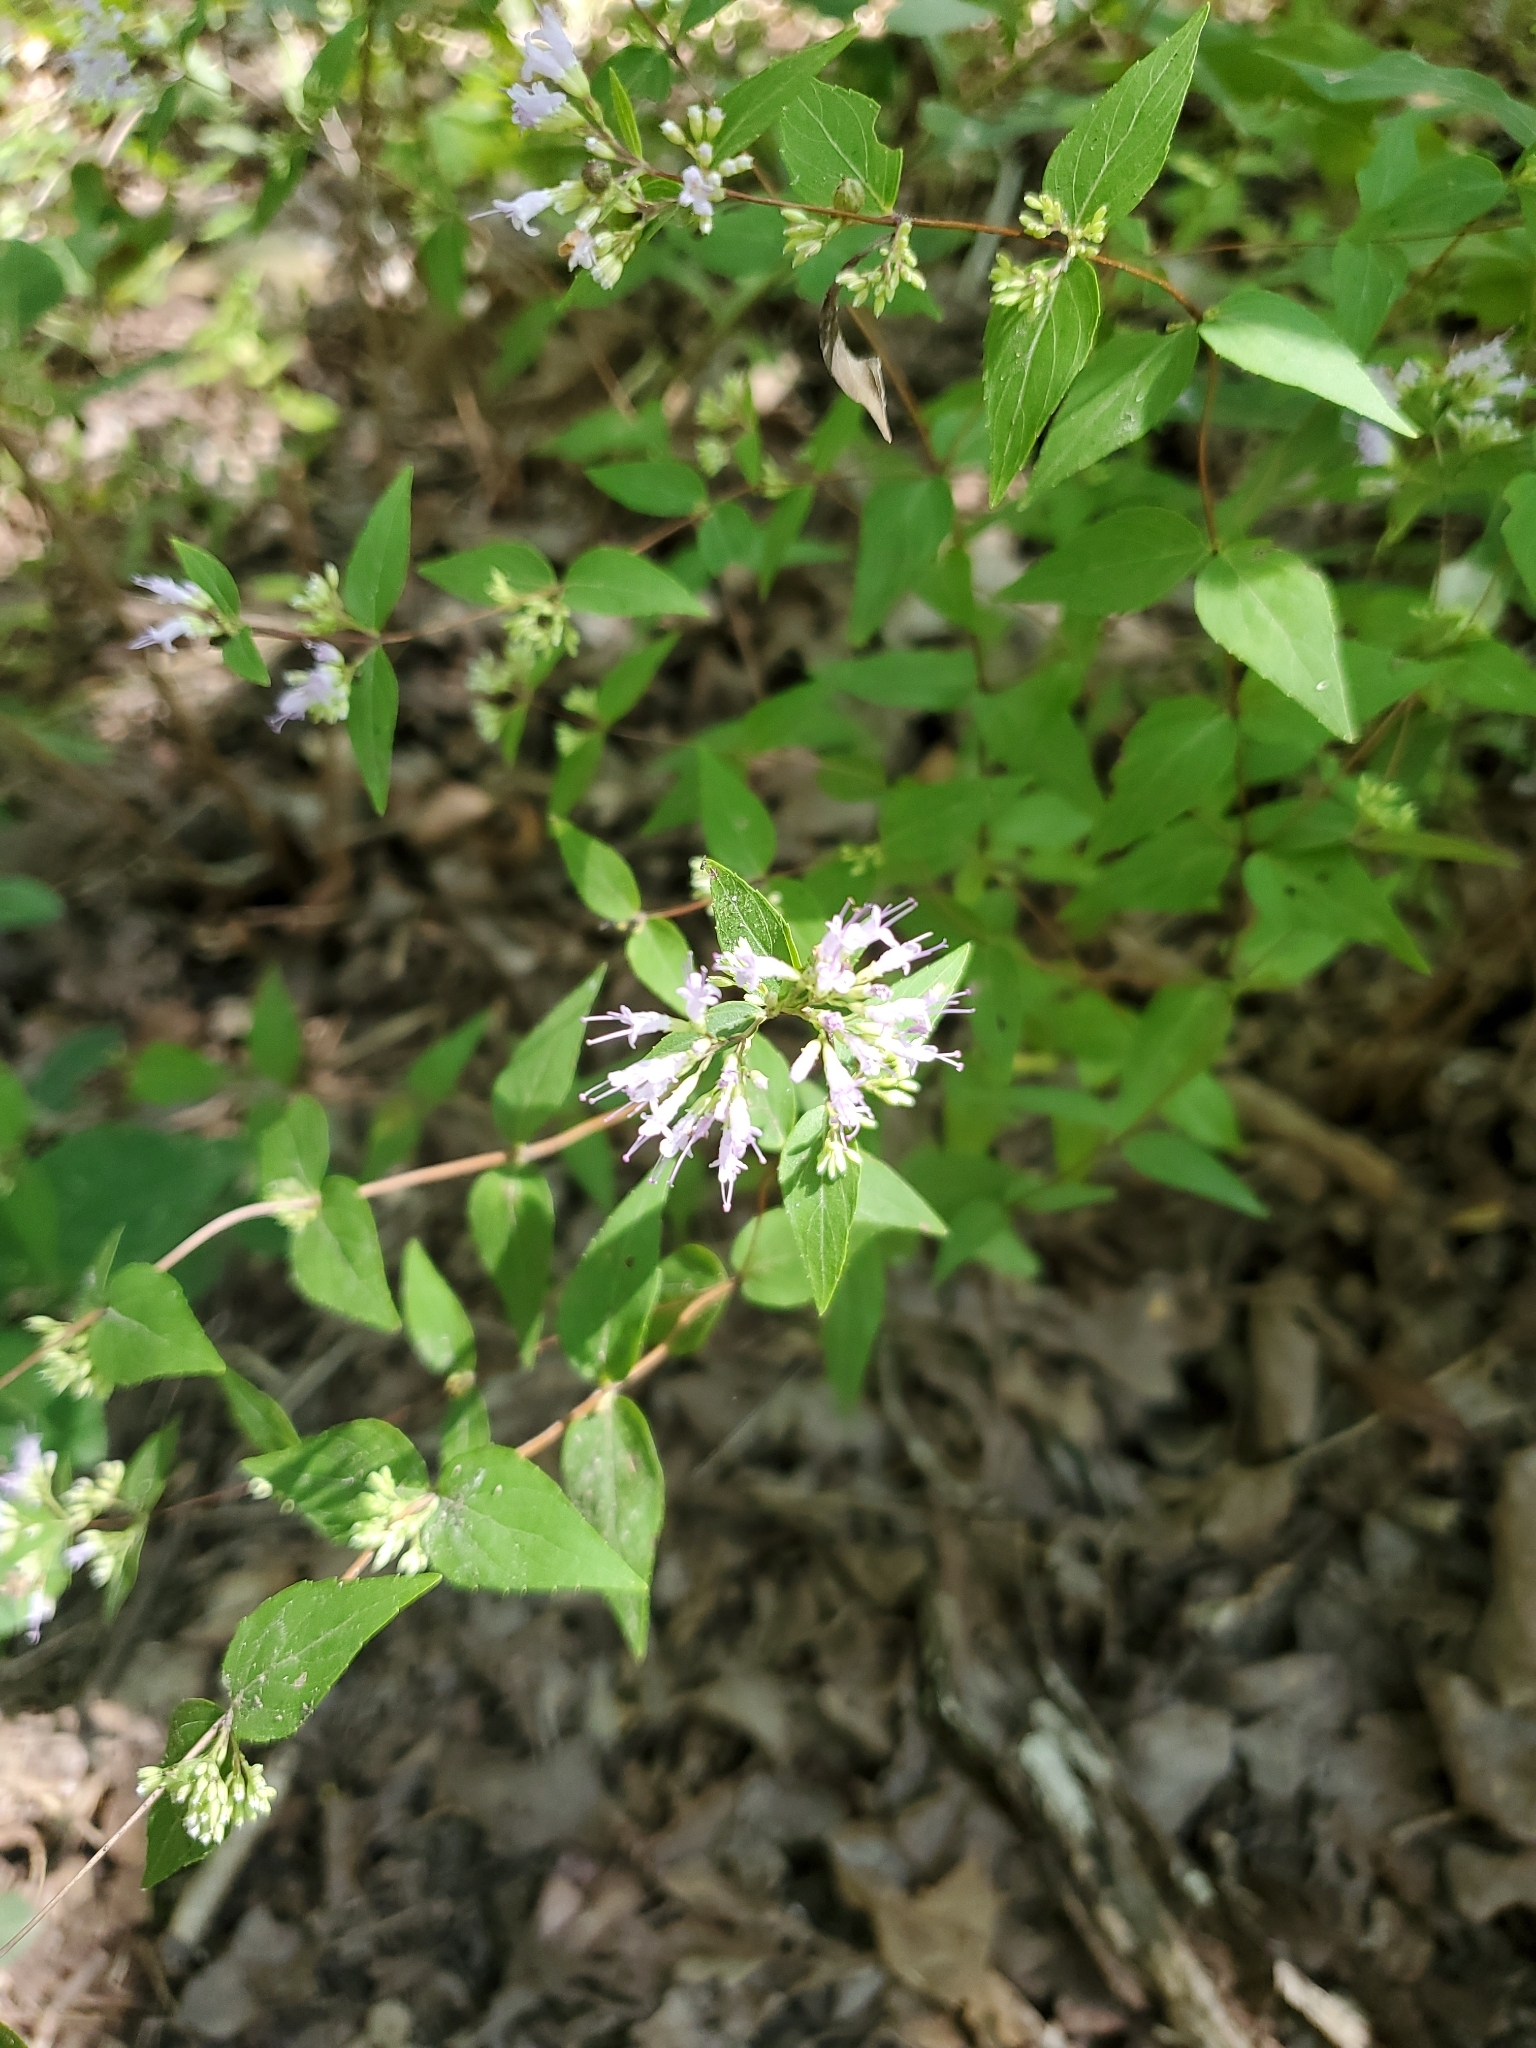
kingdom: Plantae
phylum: Tracheophyta
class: Magnoliopsida
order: Lamiales
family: Lamiaceae
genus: Cunila
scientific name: Cunila origanoides
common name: American dittany
